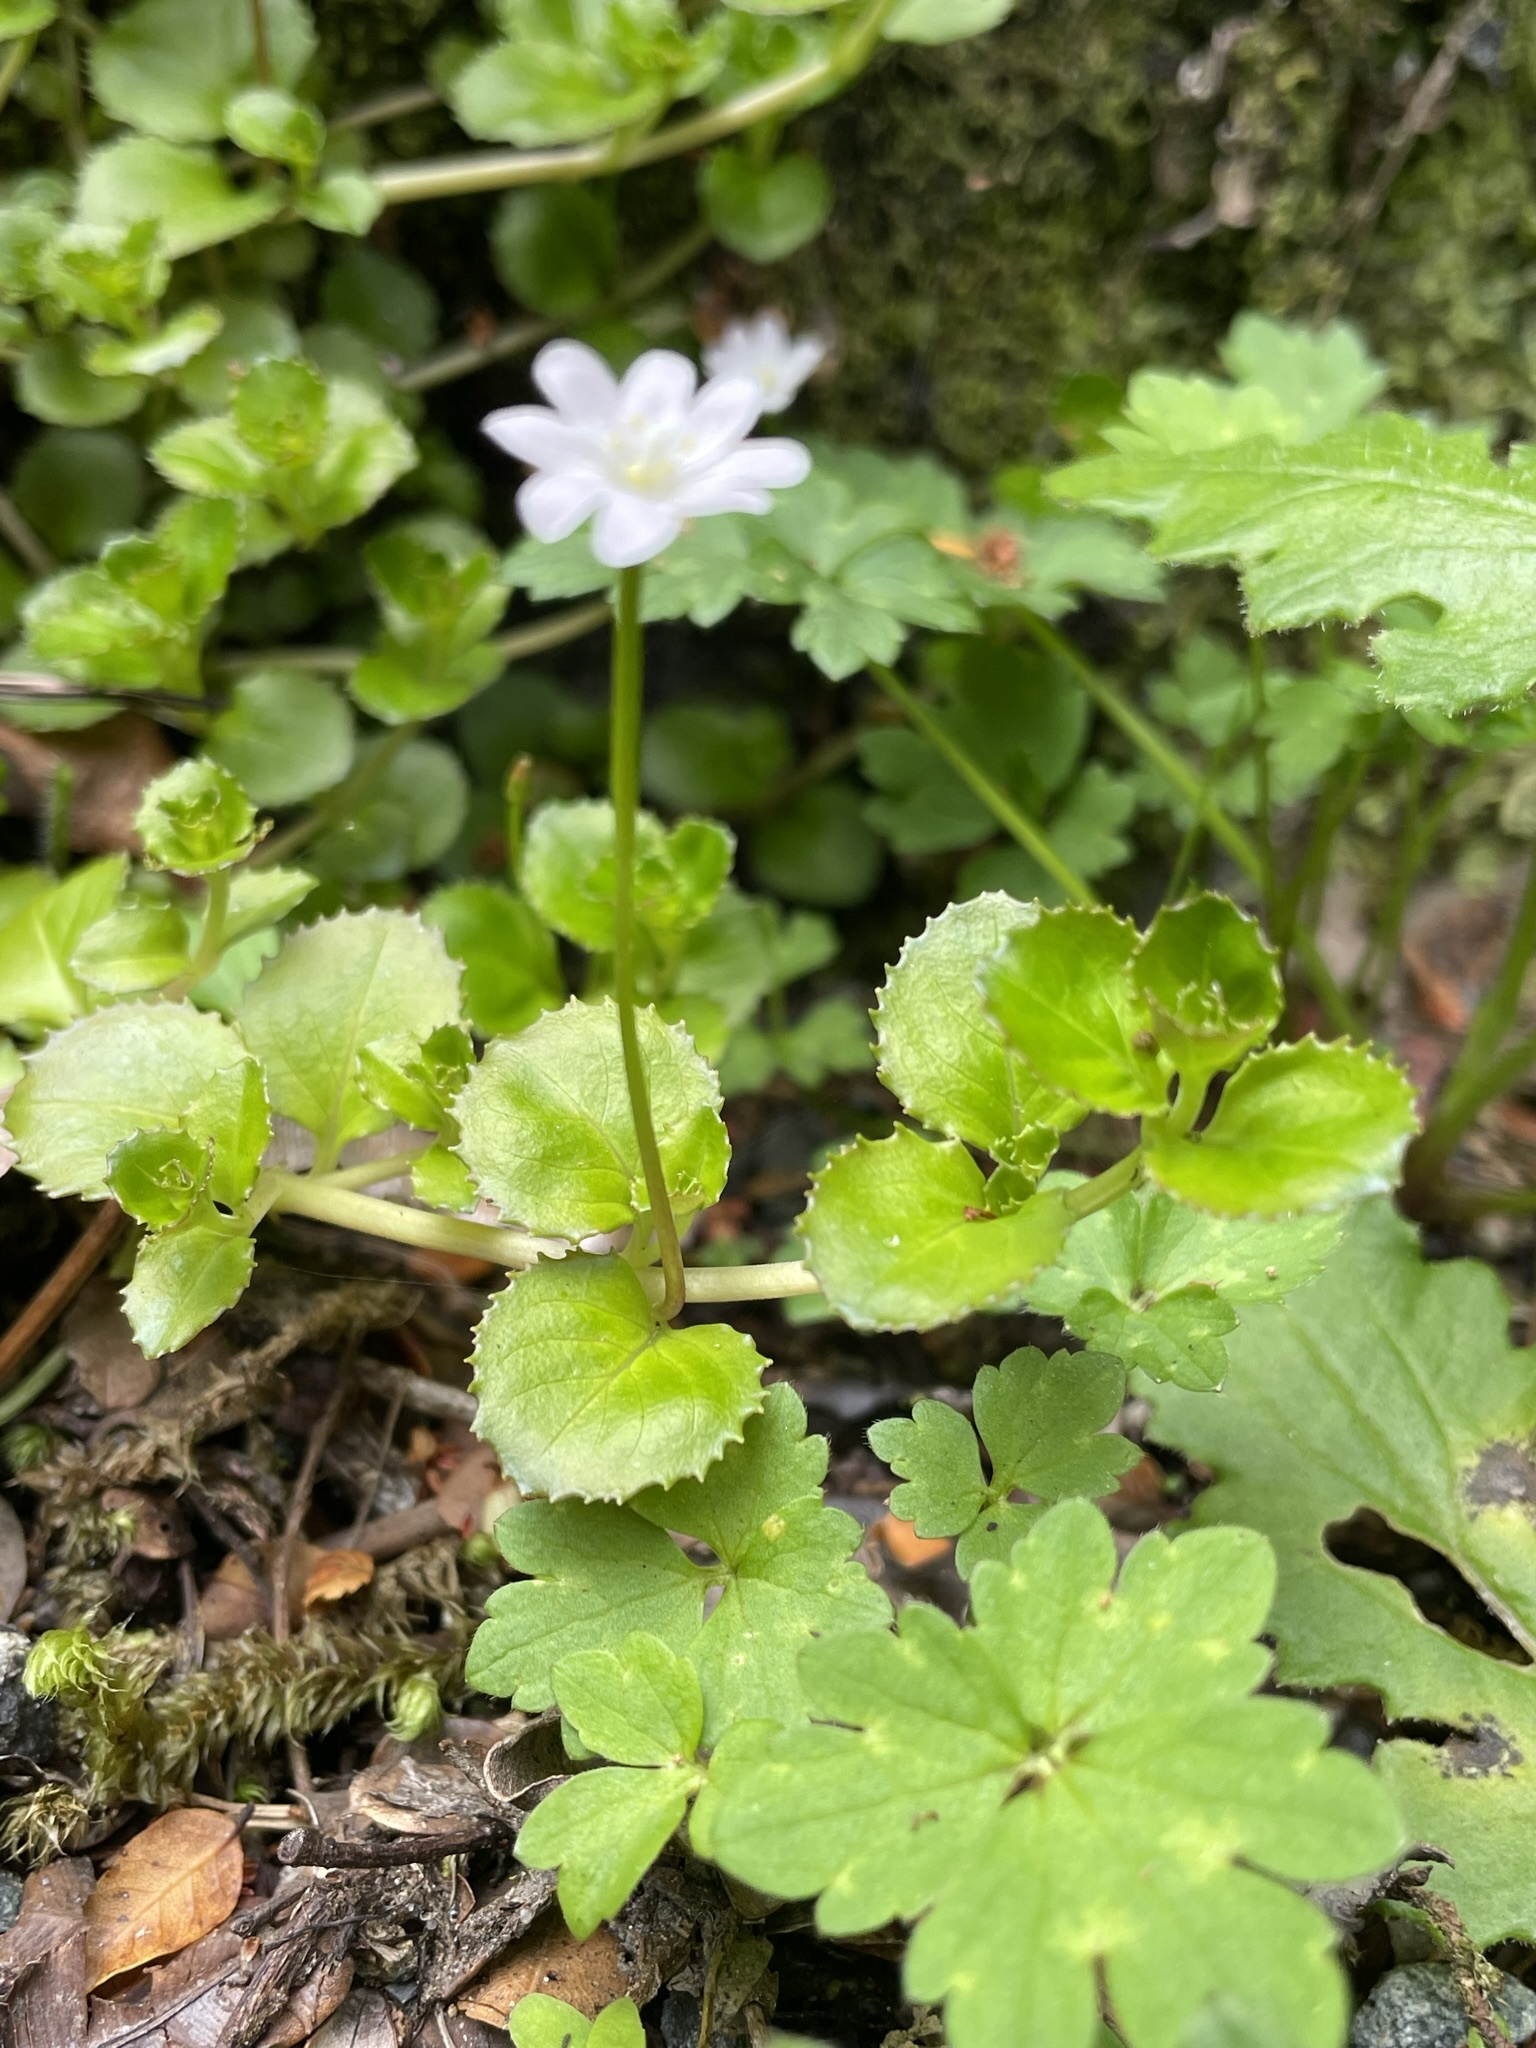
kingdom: Plantae
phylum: Tracheophyta
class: Magnoliopsida
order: Myrtales
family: Onagraceae
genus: Epilobium
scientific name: Epilobium pedunculare
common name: Rockery willowherb
